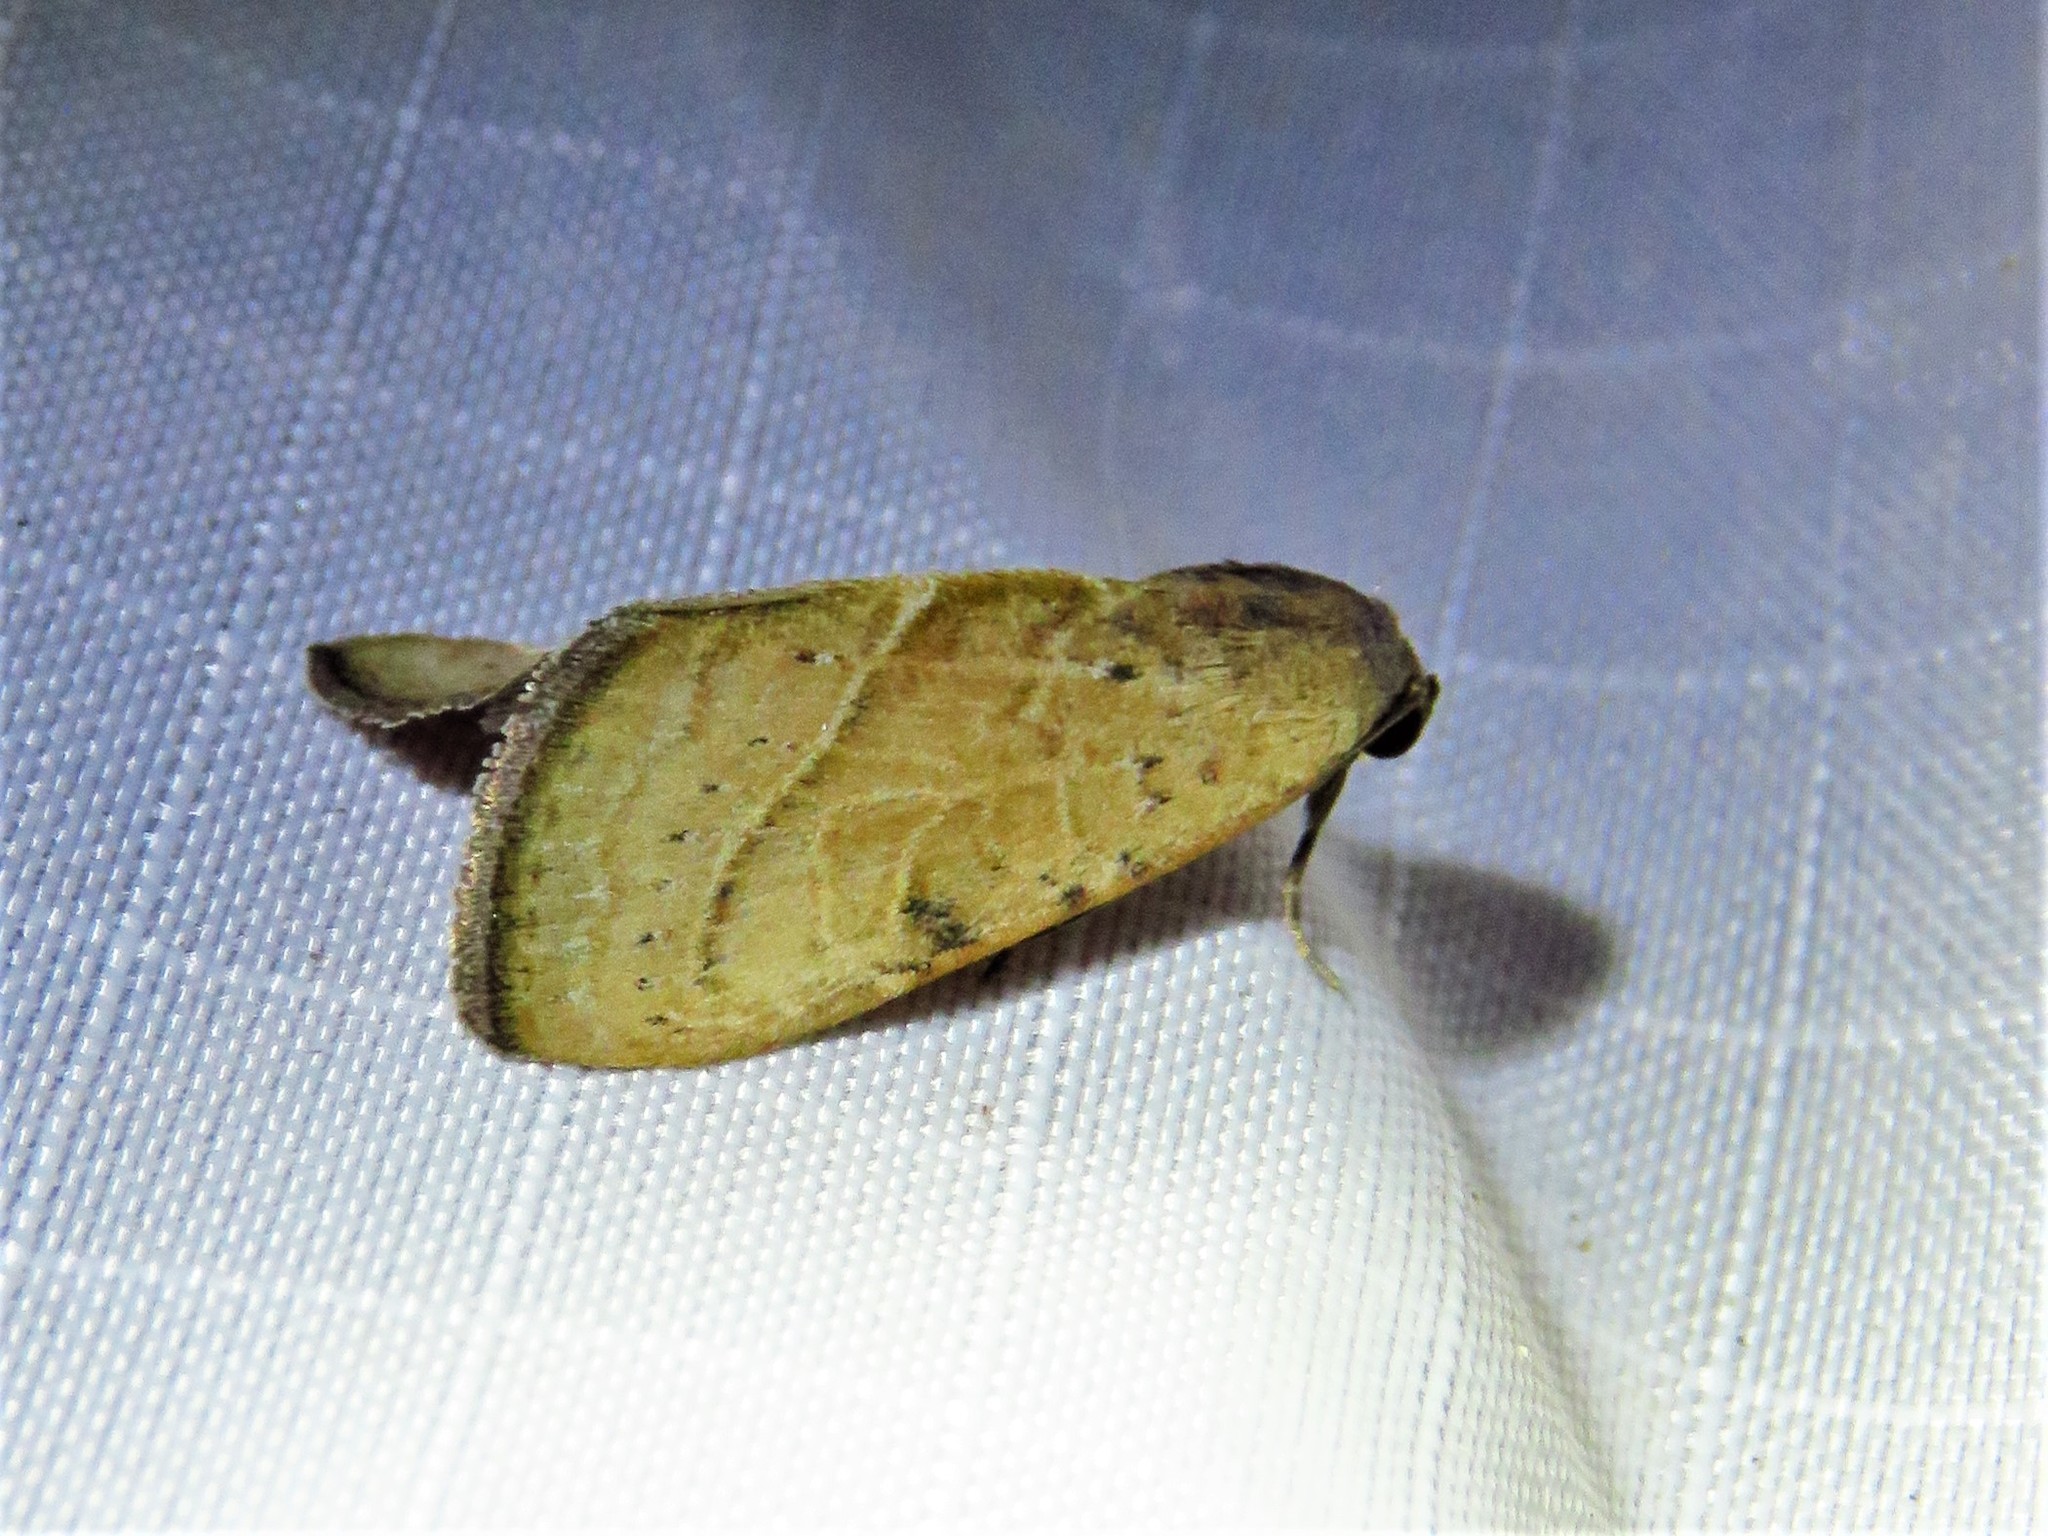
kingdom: Animalia
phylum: Arthropoda
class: Insecta
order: Lepidoptera
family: Noctuidae
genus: Galgula
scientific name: Galgula partita
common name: Wedgeling
